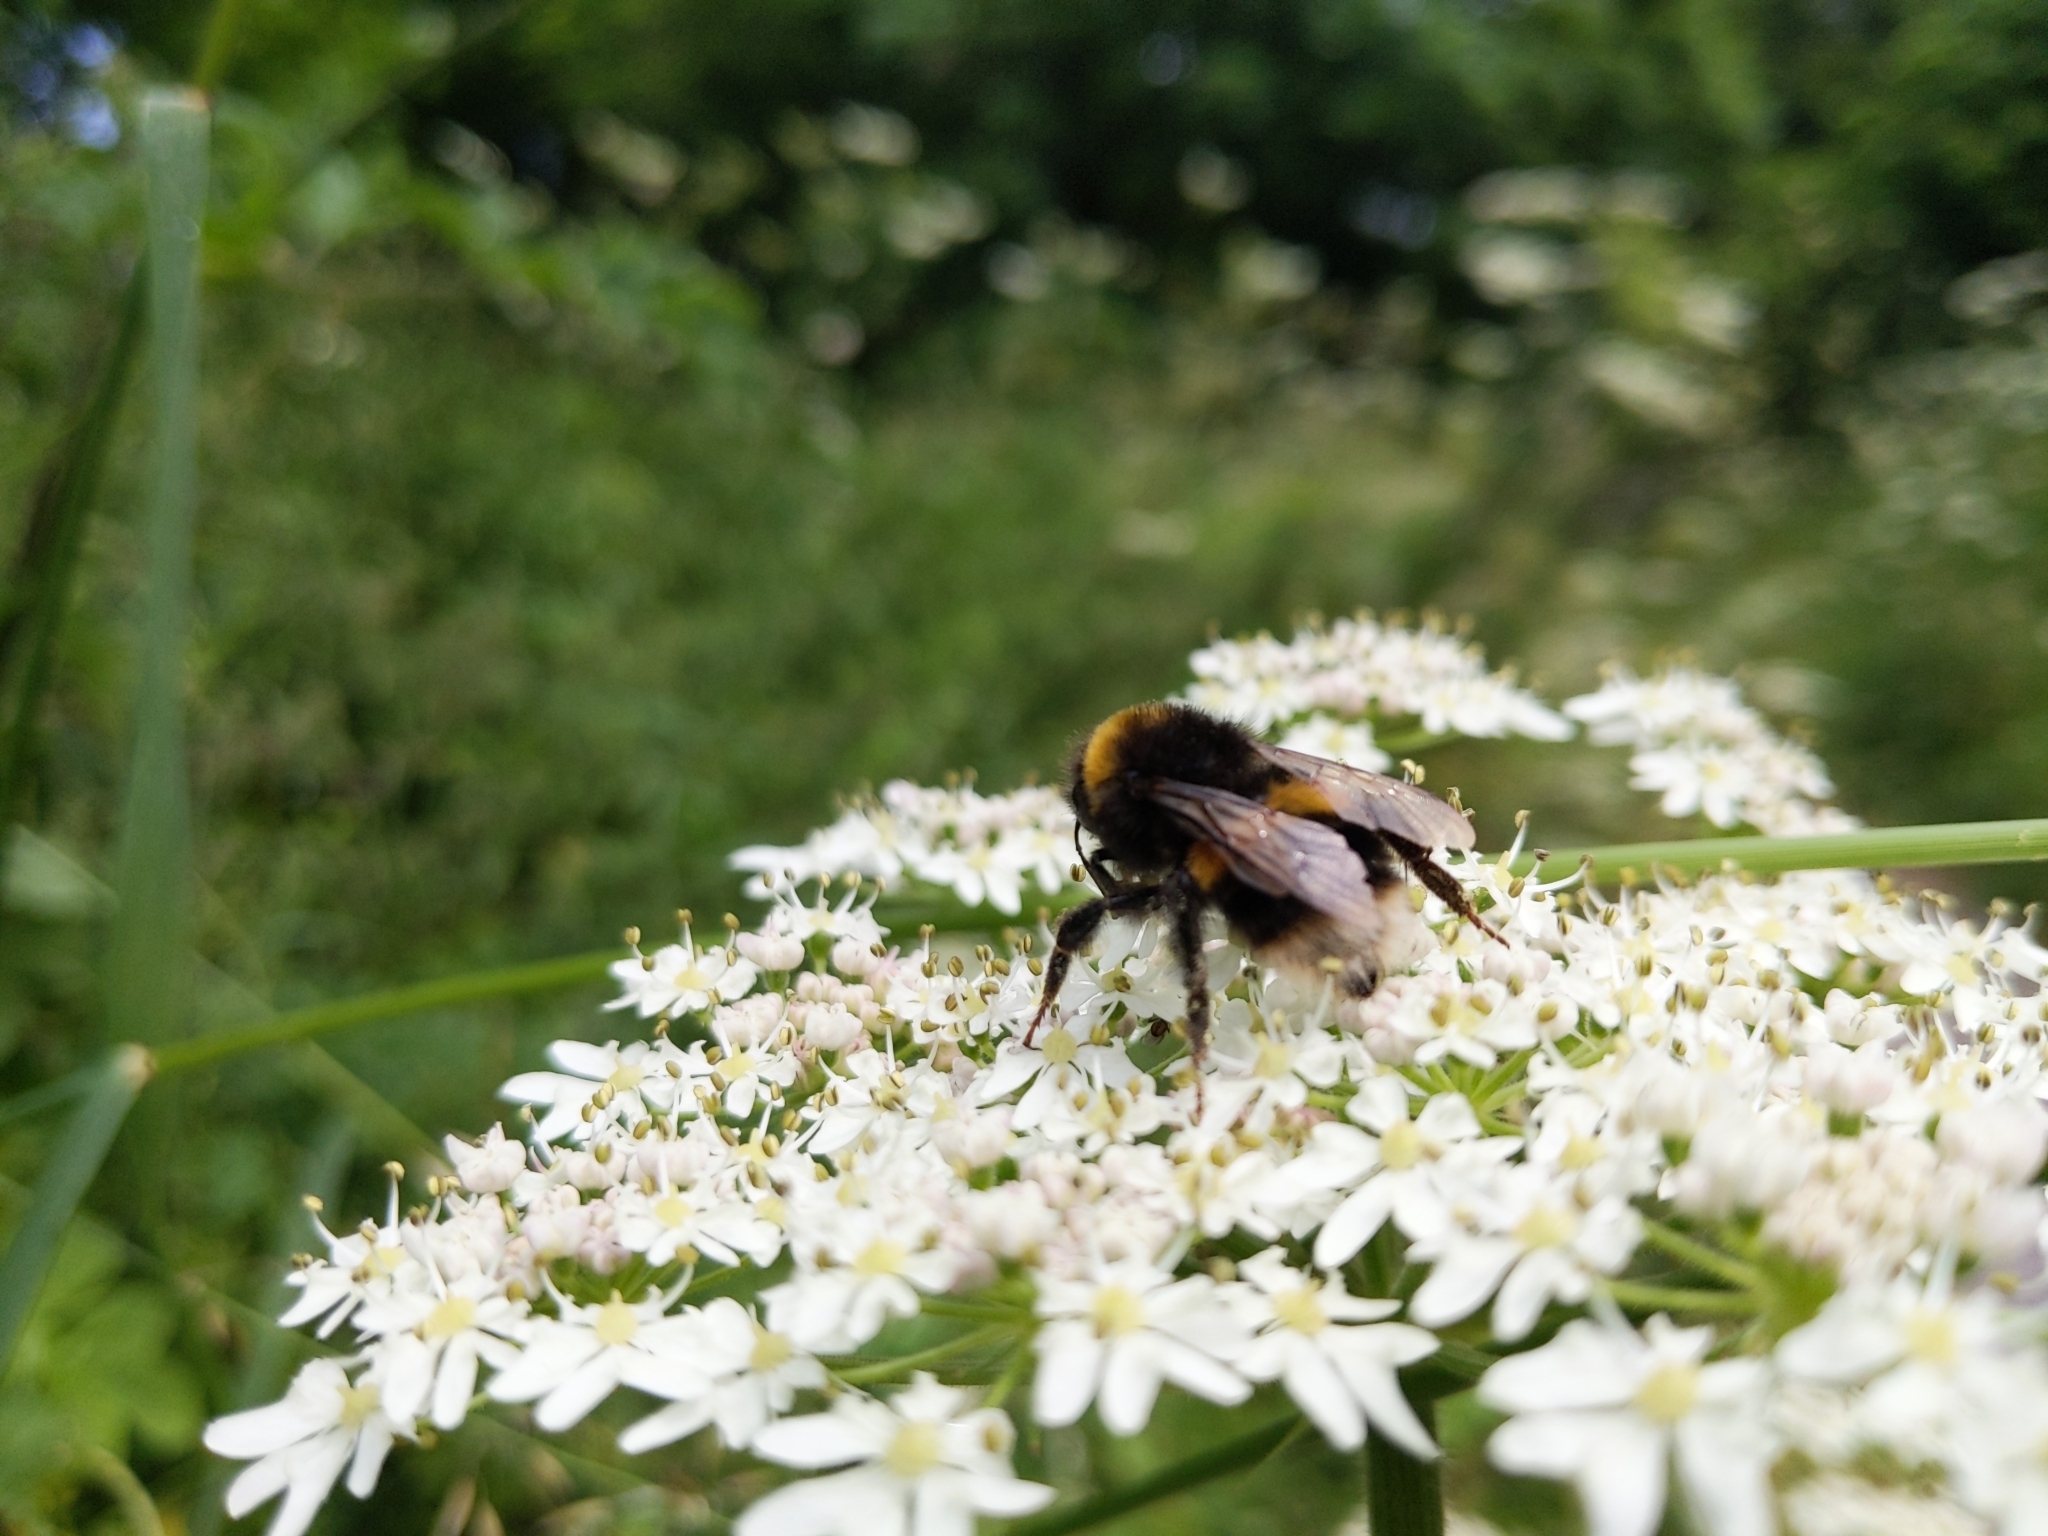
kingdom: Animalia
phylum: Arthropoda
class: Insecta
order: Hymenoptera
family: Apidae
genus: Bombus
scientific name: Bombus terrestris
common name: Buff-tailed bumblebee
